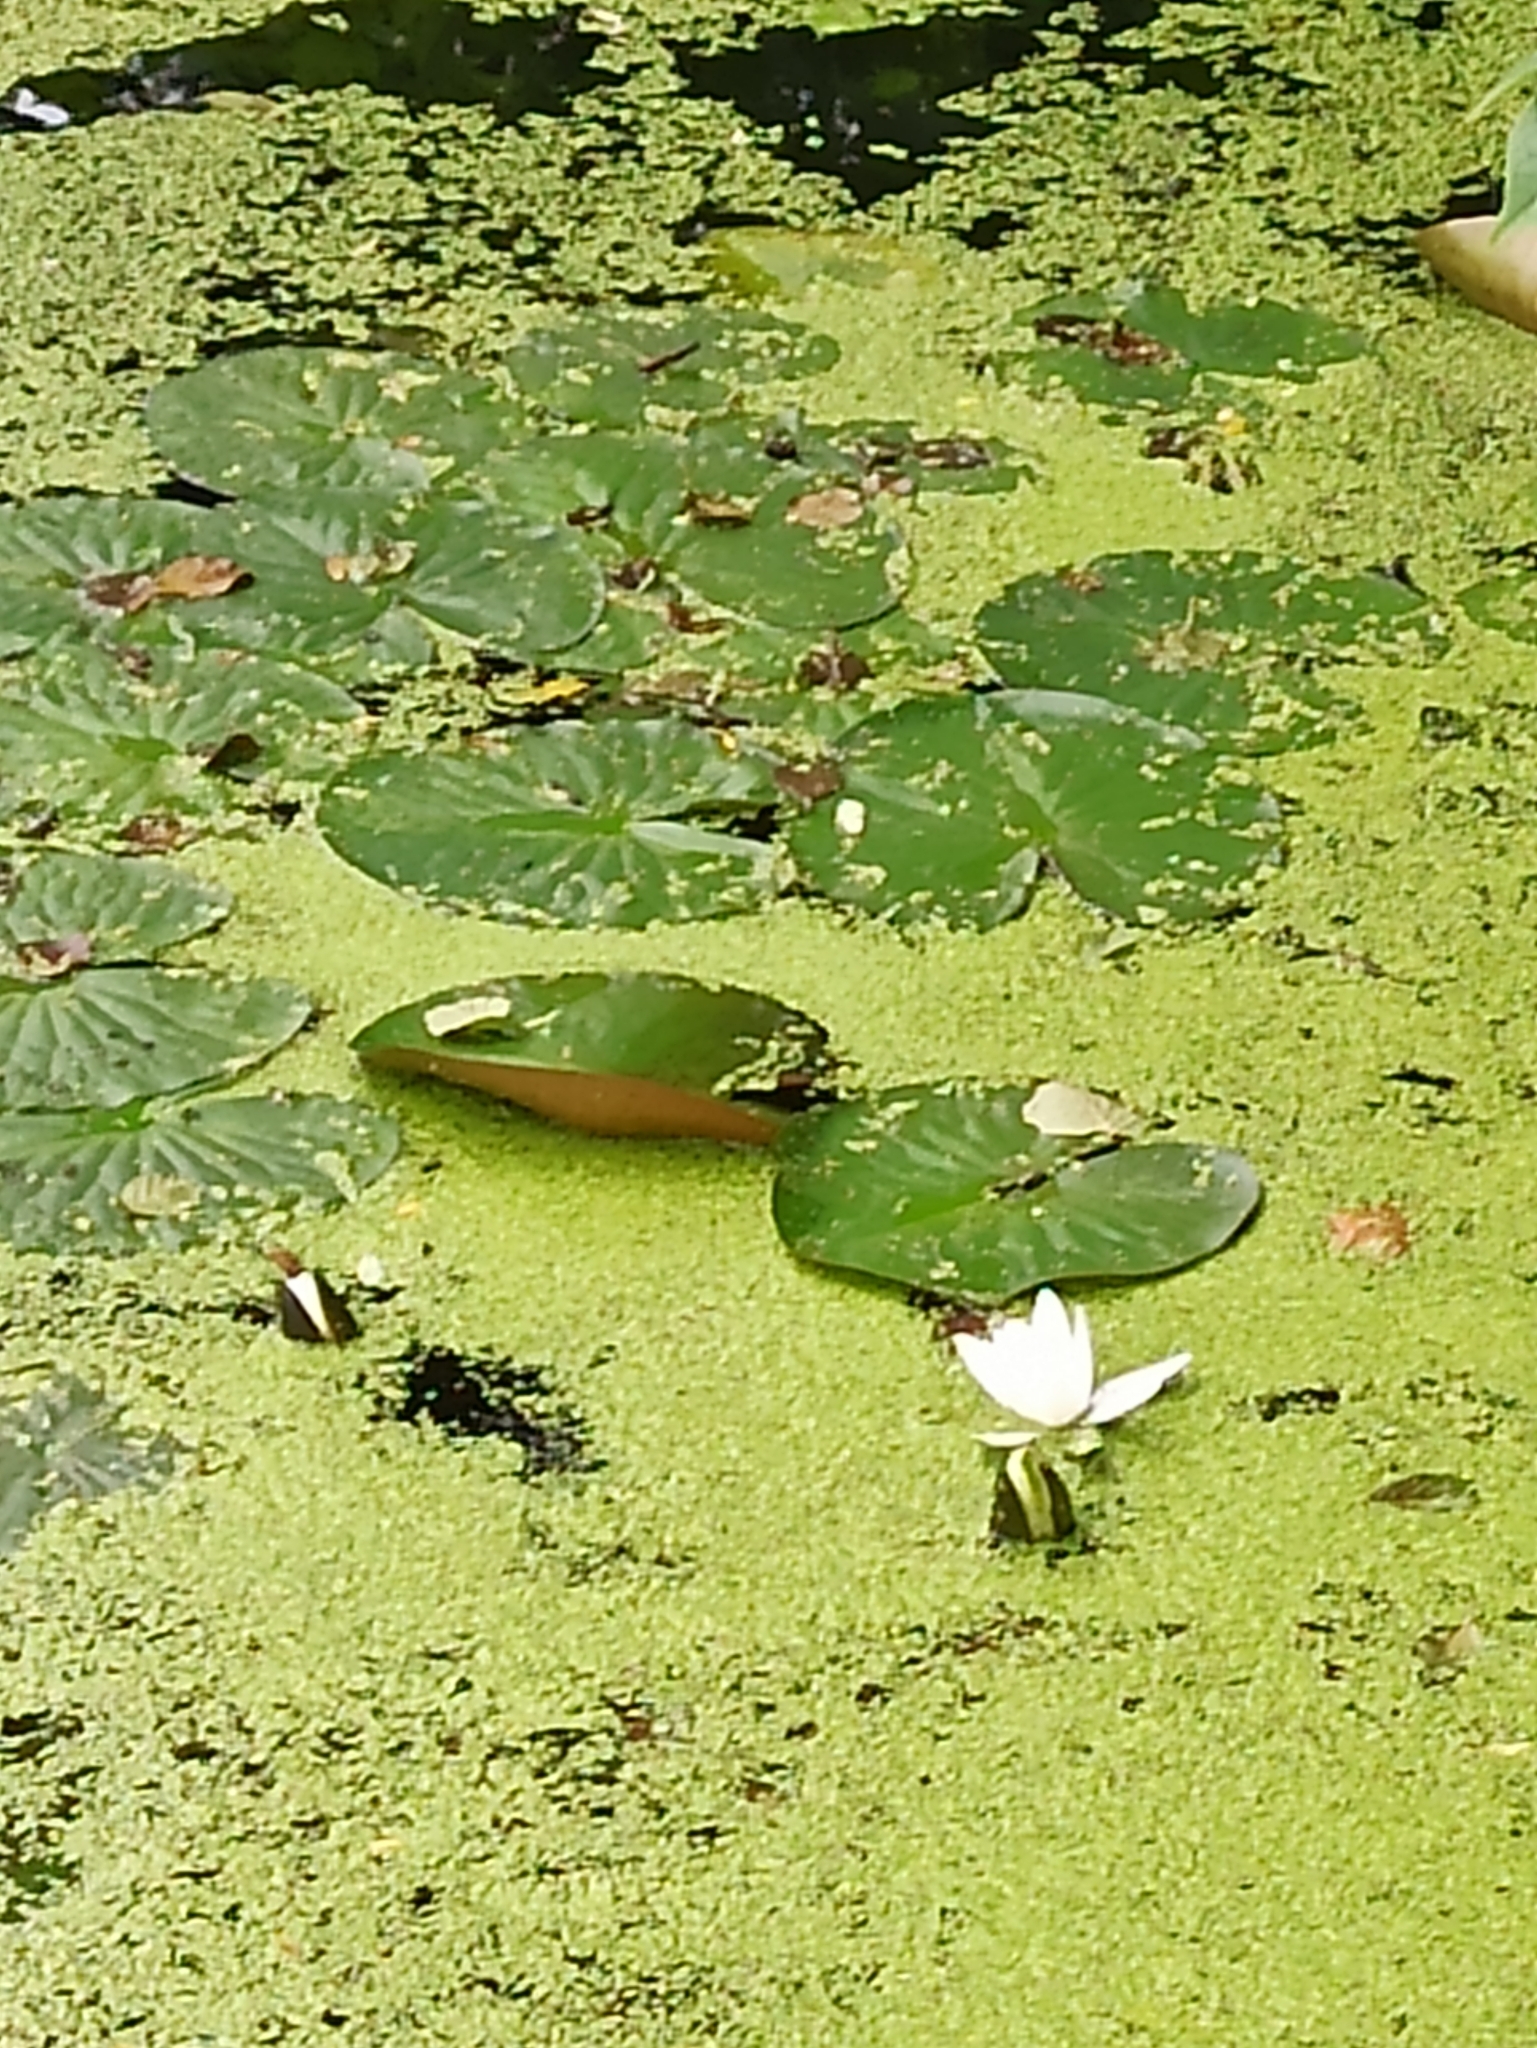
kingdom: Plantae
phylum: Tracheophyta
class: Magnoliopsida
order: Nymphaeales
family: Nymphaeaceae
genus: Nymphaea
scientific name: Nymphaea candida
